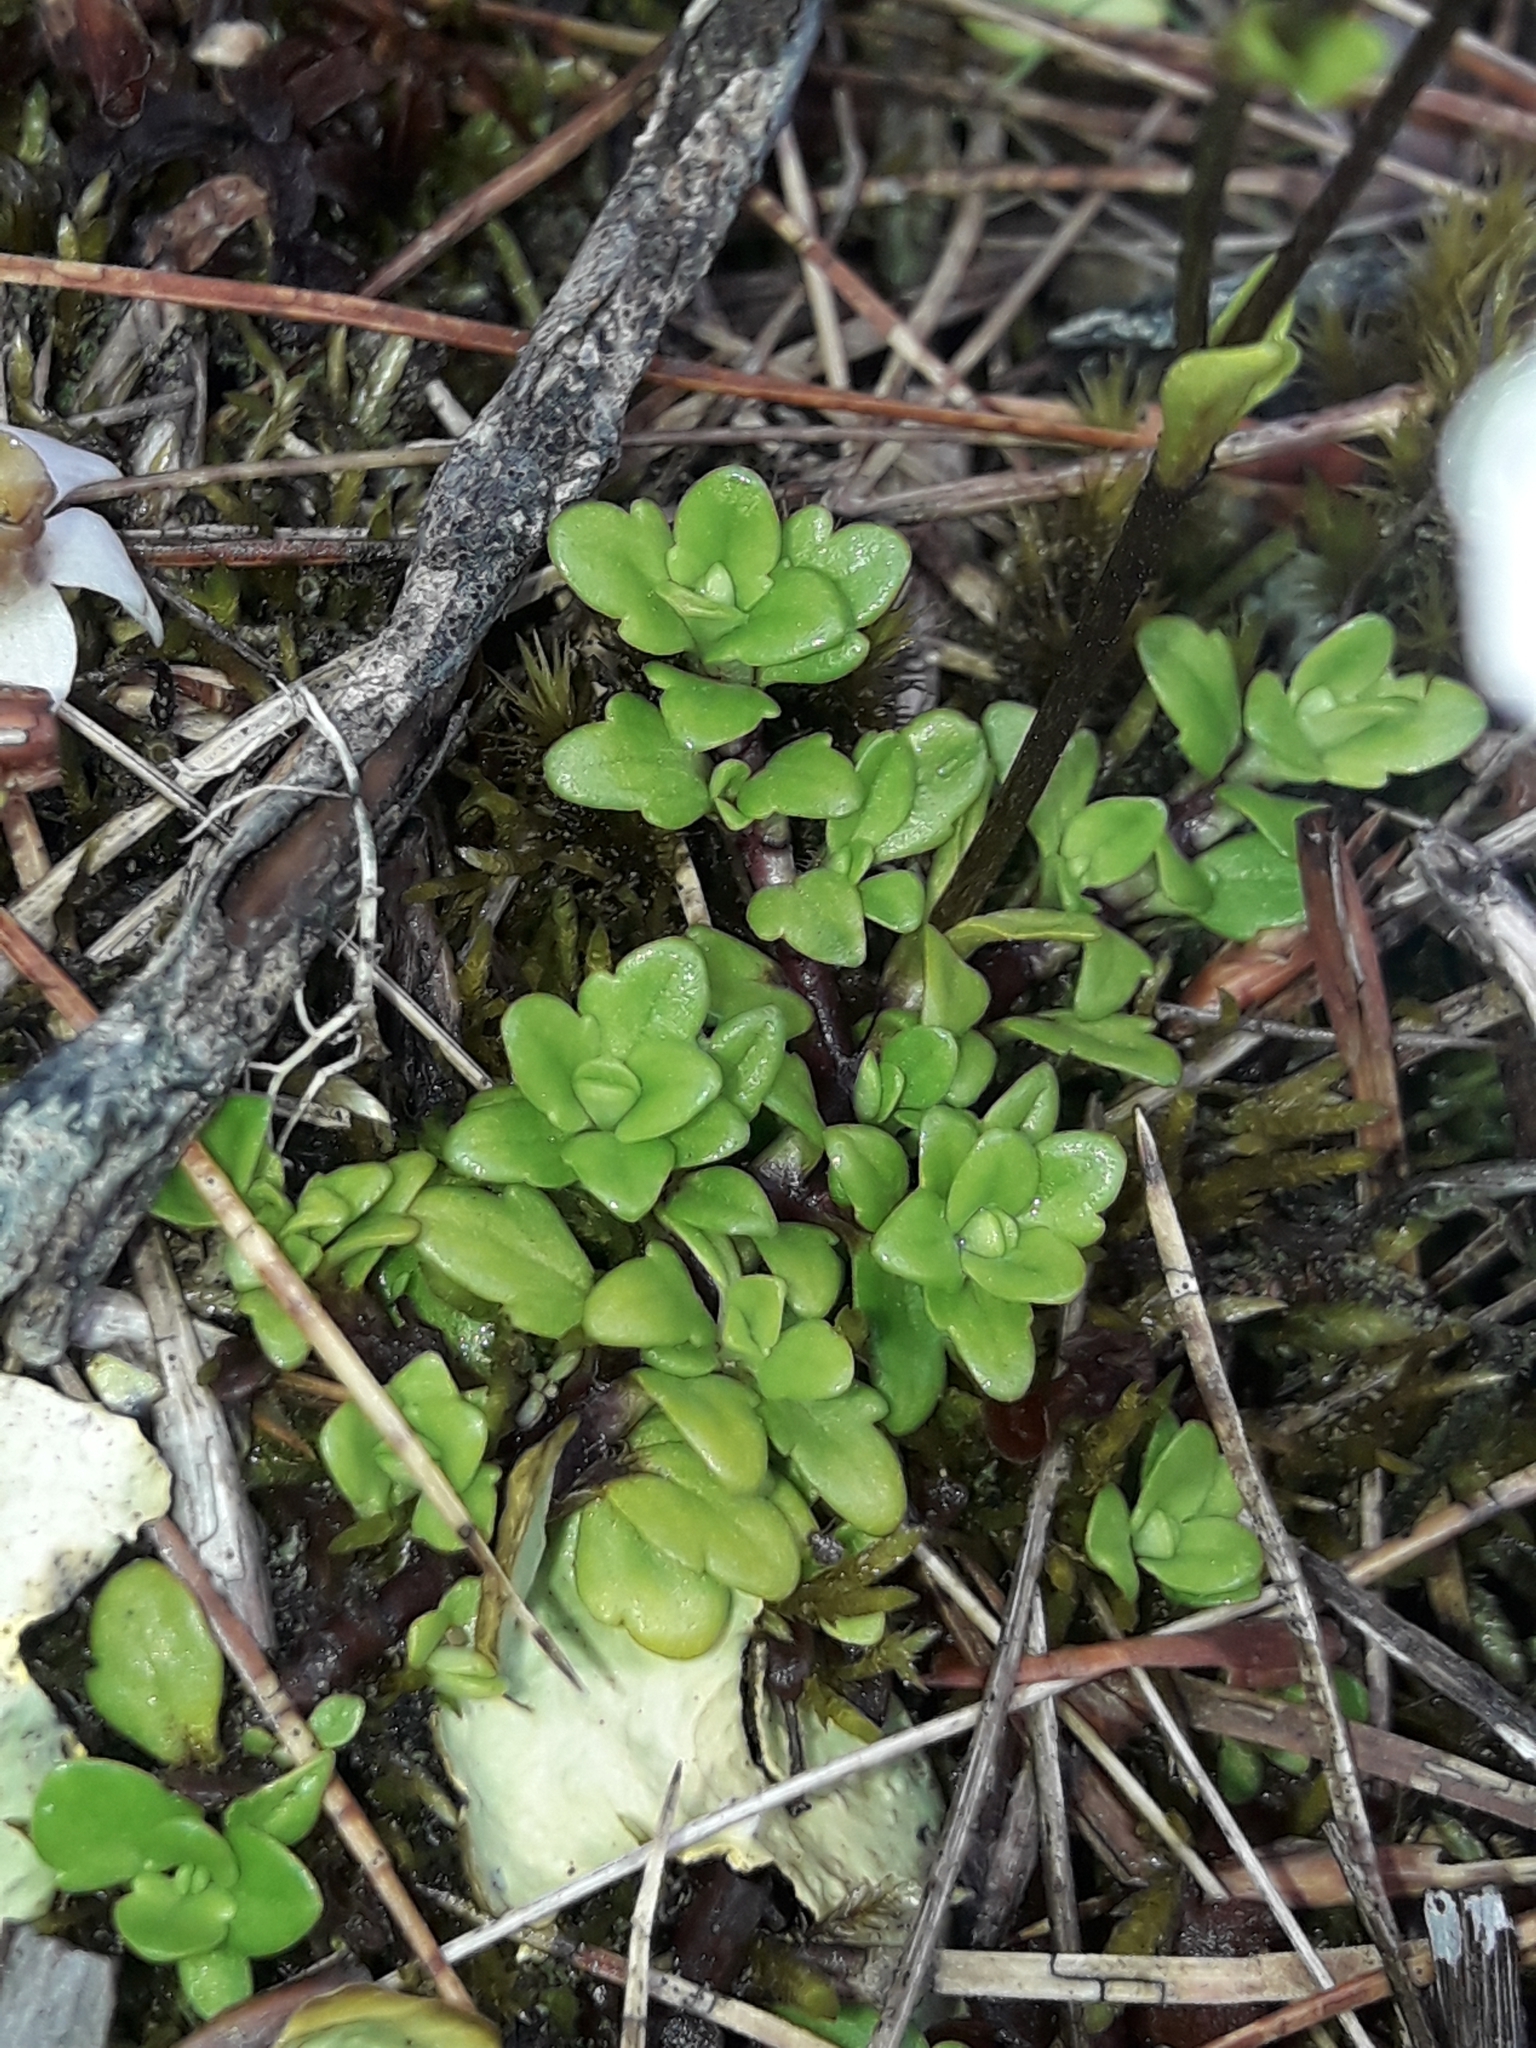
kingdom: Plantae
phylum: Tracheophyta
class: Magnoliopsida
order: Lamiales
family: Plantaginaceae
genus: Ourisia
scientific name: Ourisia caespitosa
